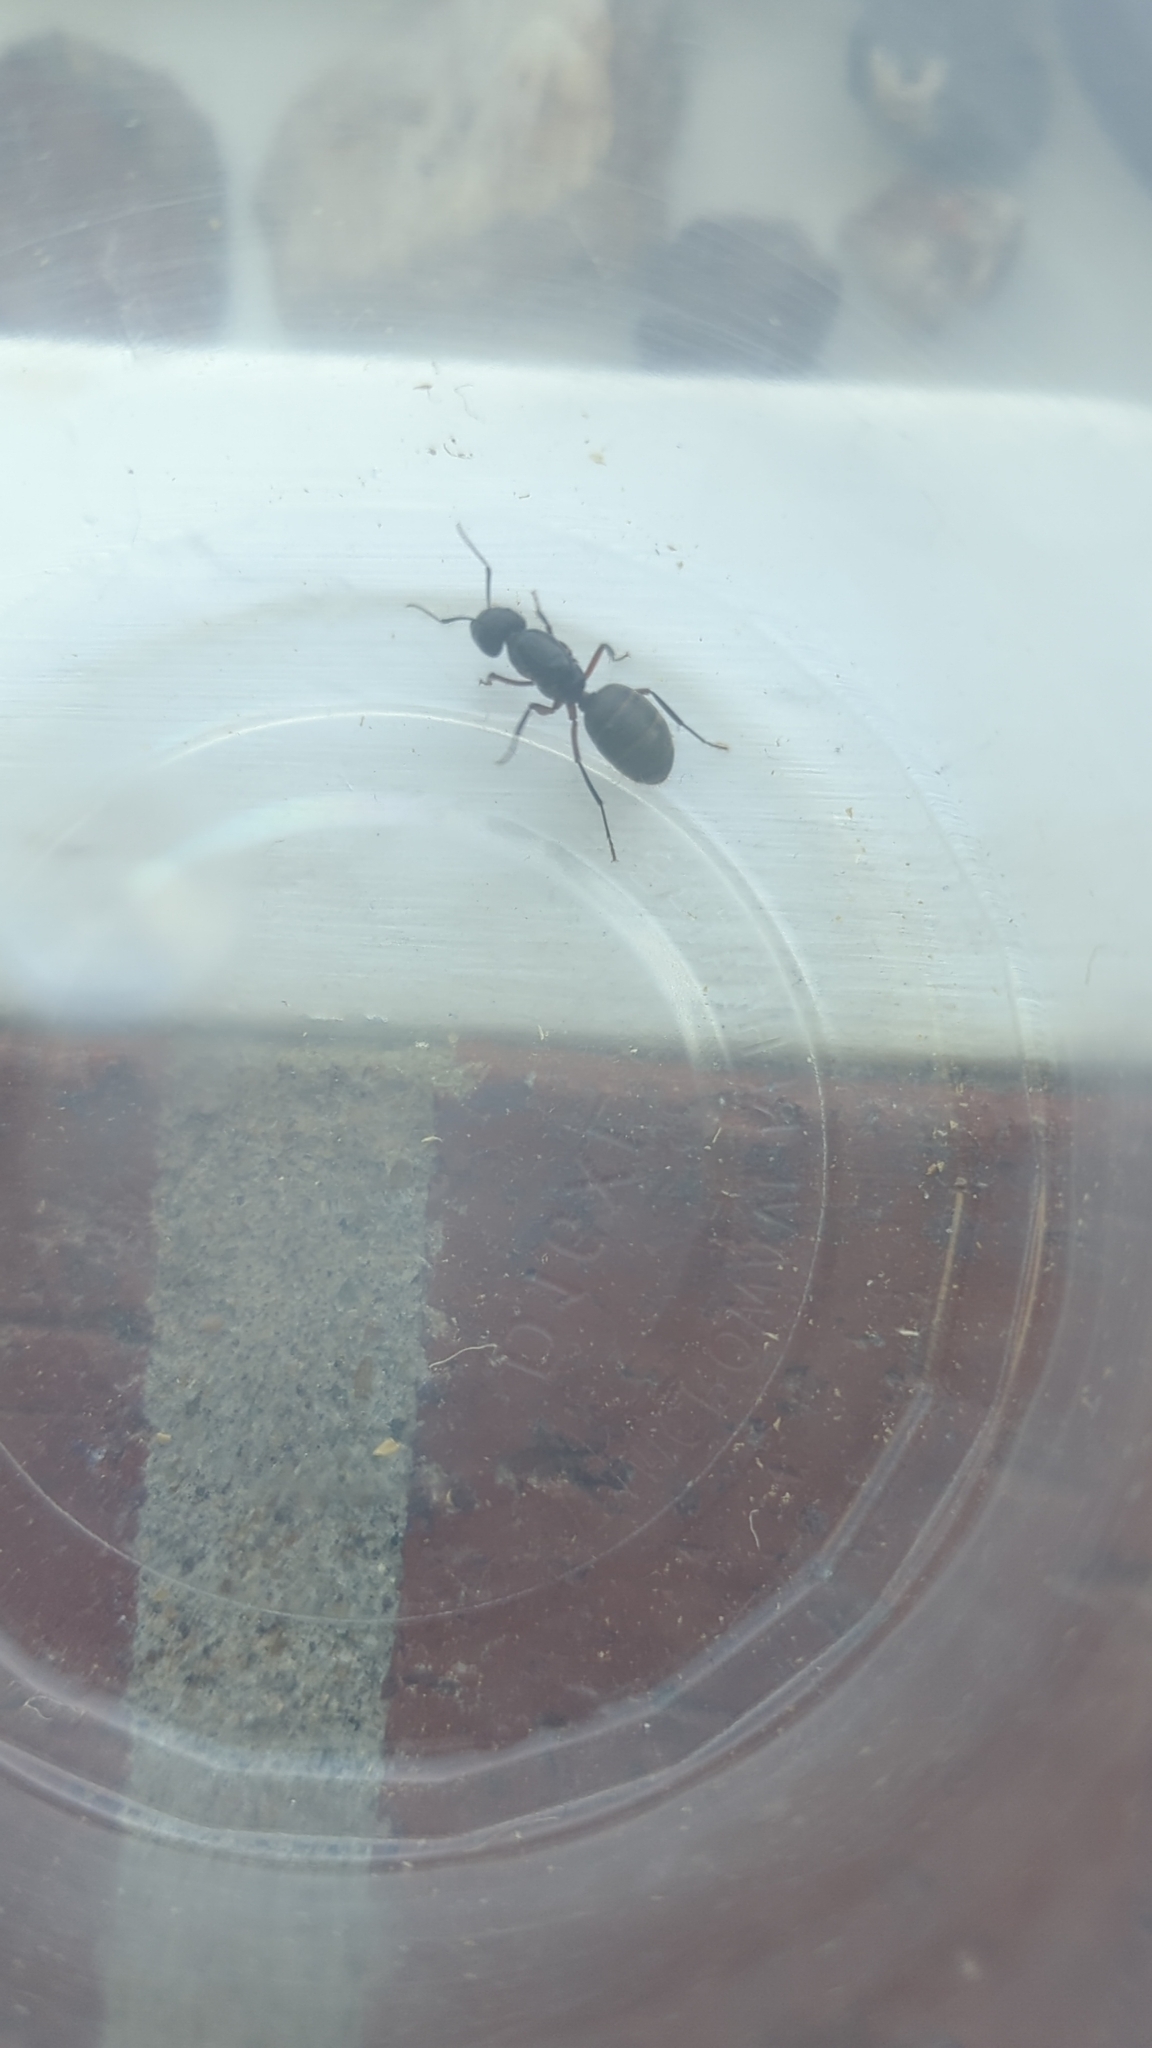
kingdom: Animalia
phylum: Arthropoda
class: Insecta
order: Hymenoptera
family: Formicidae
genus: Camponotus
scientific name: Camponotus chromaiodes
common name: Red carpenter ant
